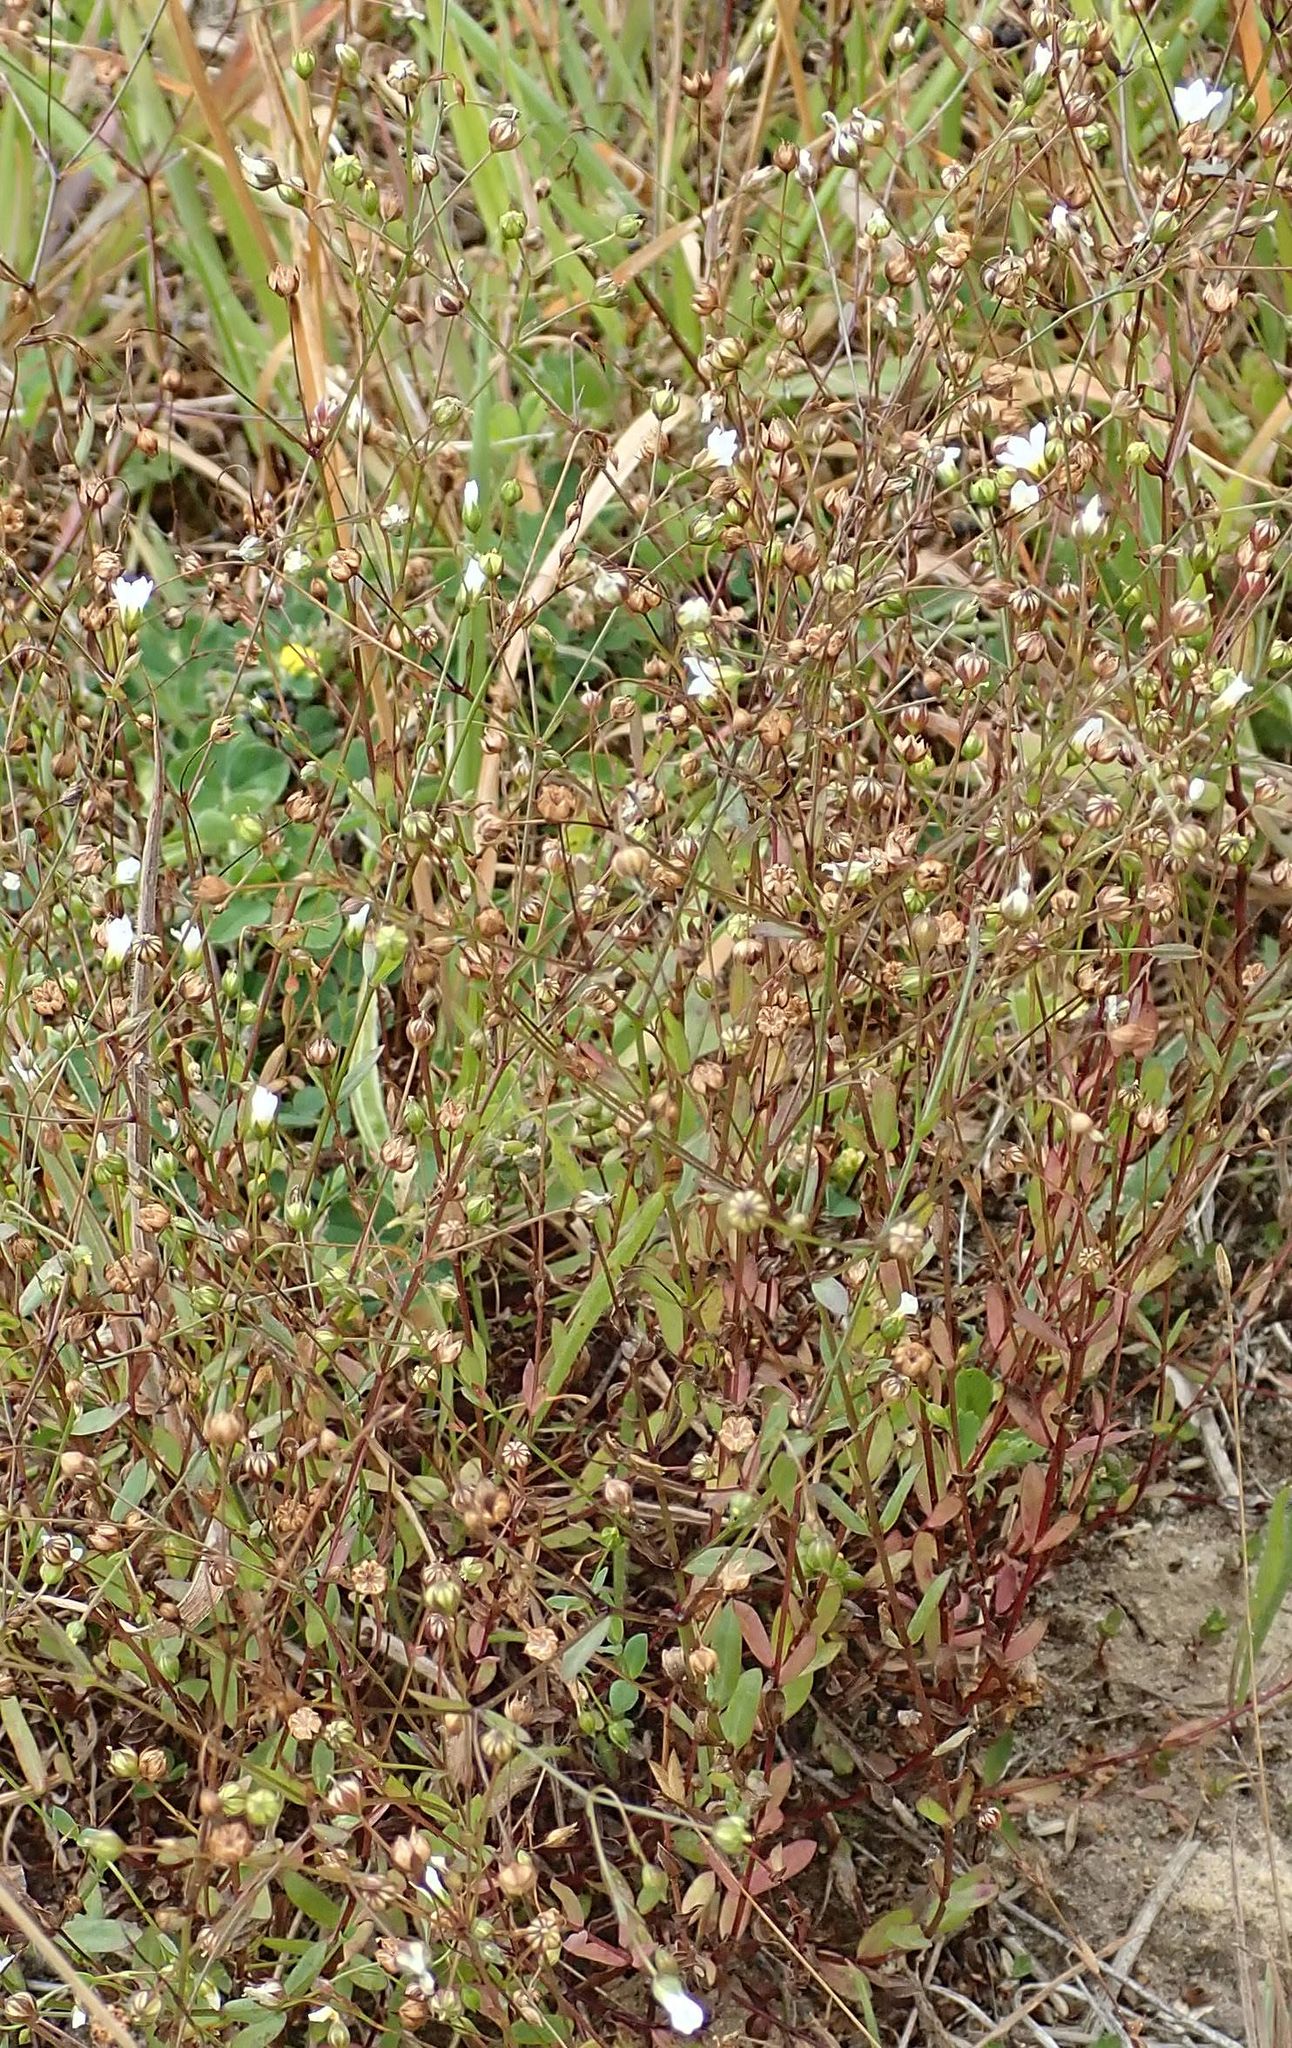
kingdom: Plantae
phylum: Tracheophyta
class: Magnoliopsida
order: Malpighiales
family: Linaceae
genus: Linum
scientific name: Linum catharticum
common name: Fairy flax
